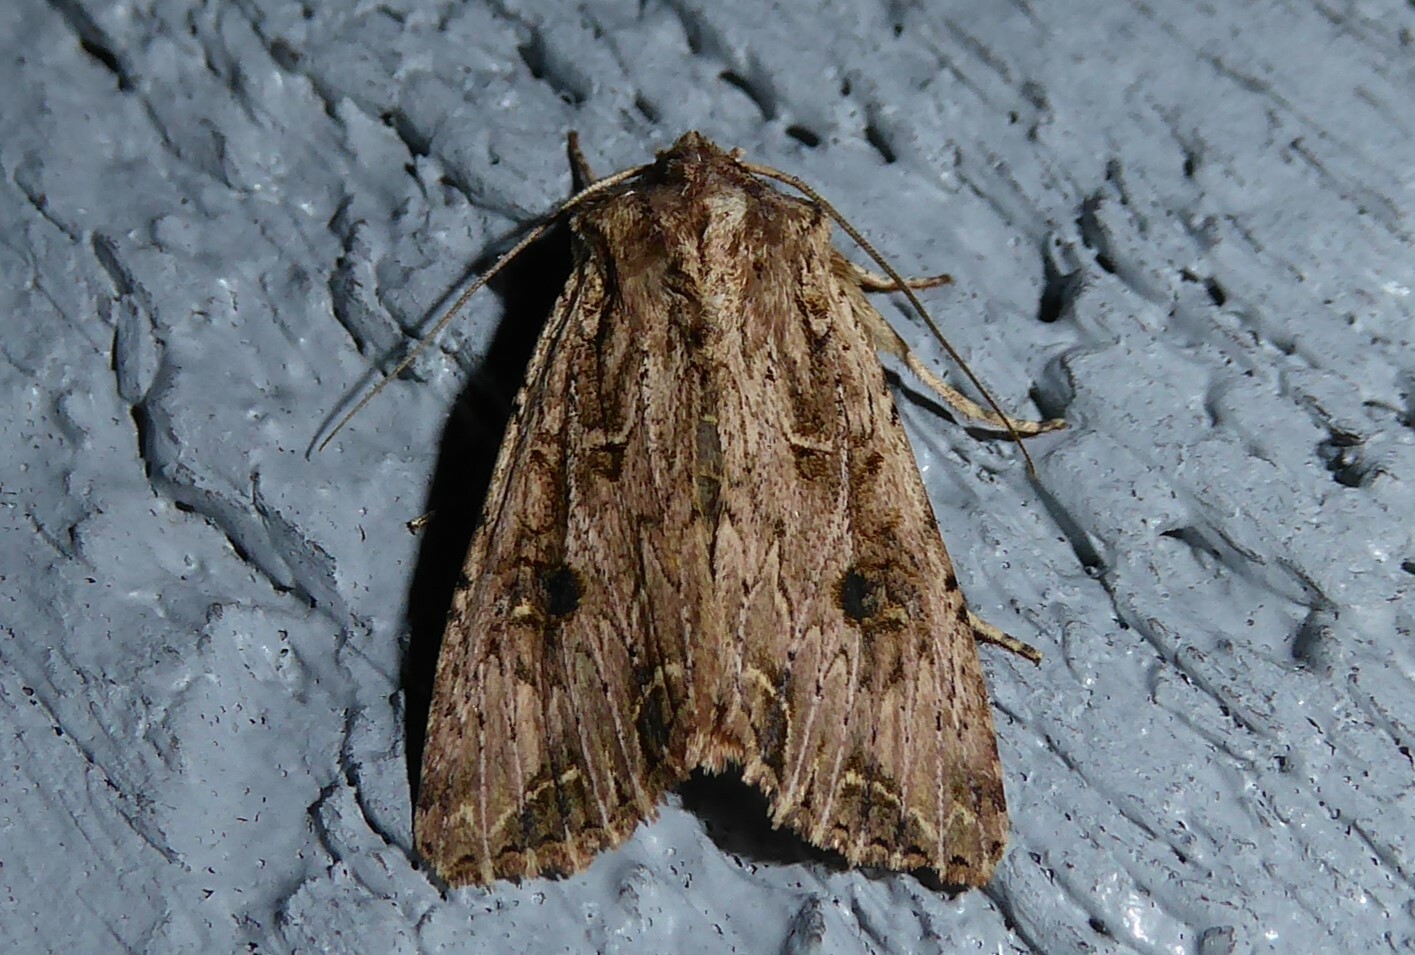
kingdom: Animalia
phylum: Arthropoda
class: Insecta
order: Lepidoptera
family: Noctuidae
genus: Ichneutica
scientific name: Ichneutica lignana
